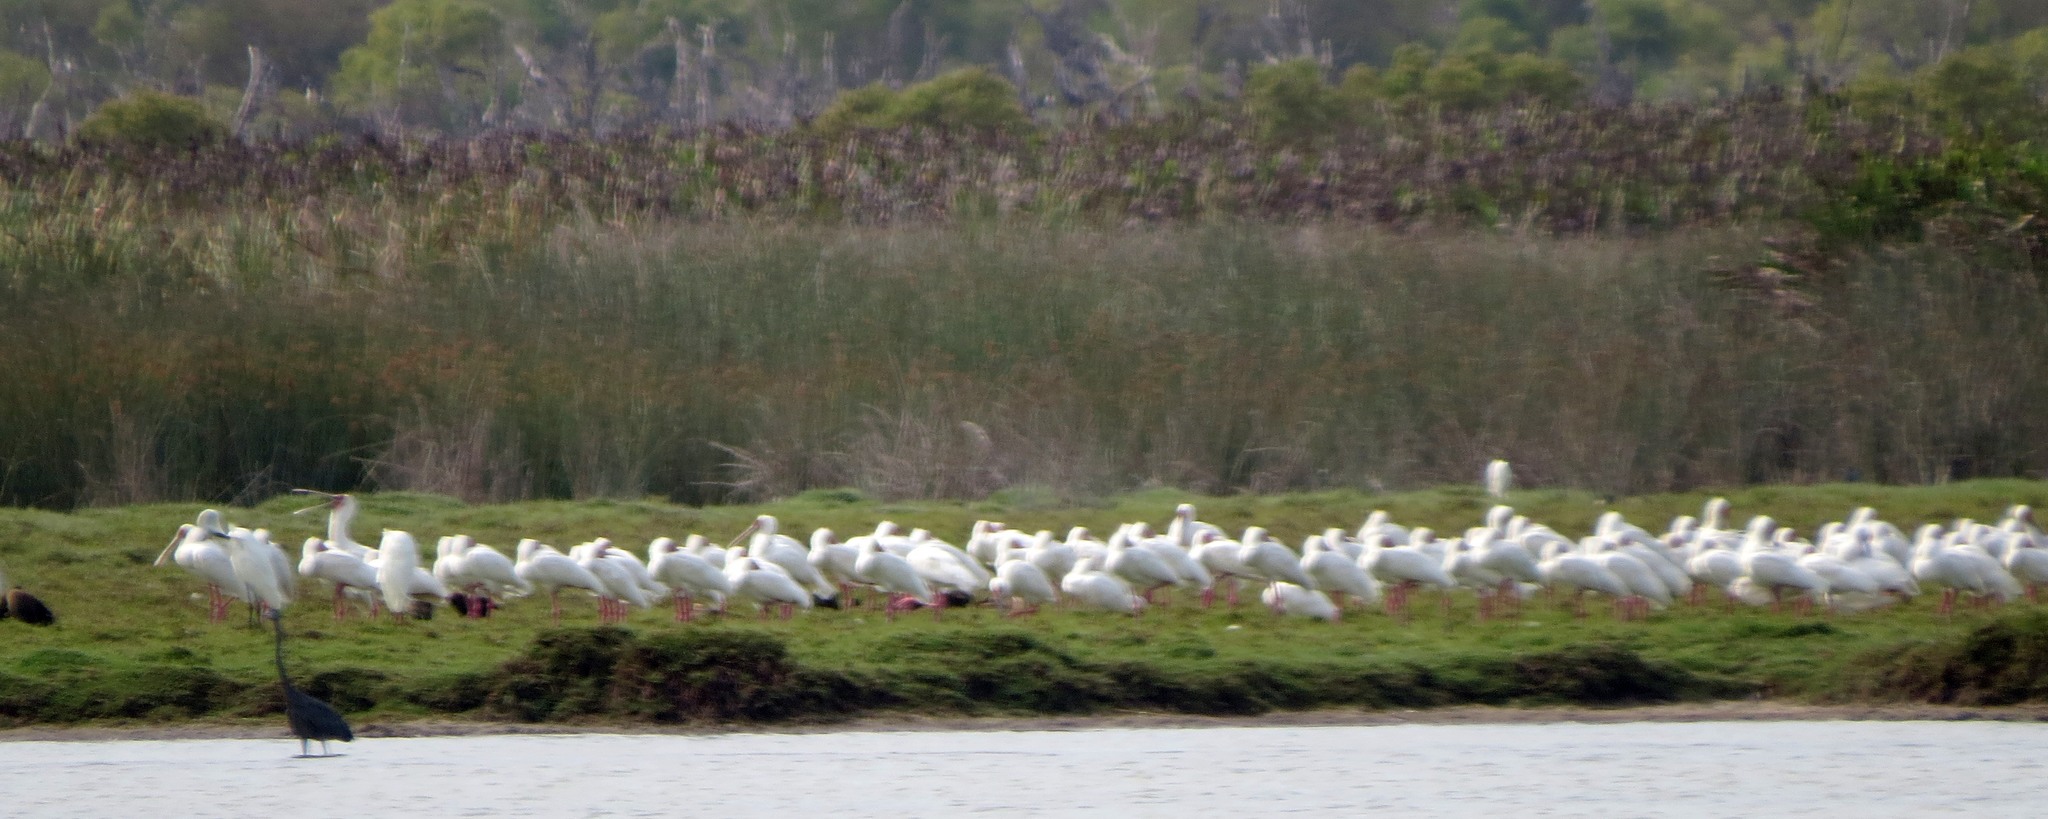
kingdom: Animalia
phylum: Chordata
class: Aves
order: Pelecaniformes
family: Threskiornithidae
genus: Platalea
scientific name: Platalea alba
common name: African spoonbill
